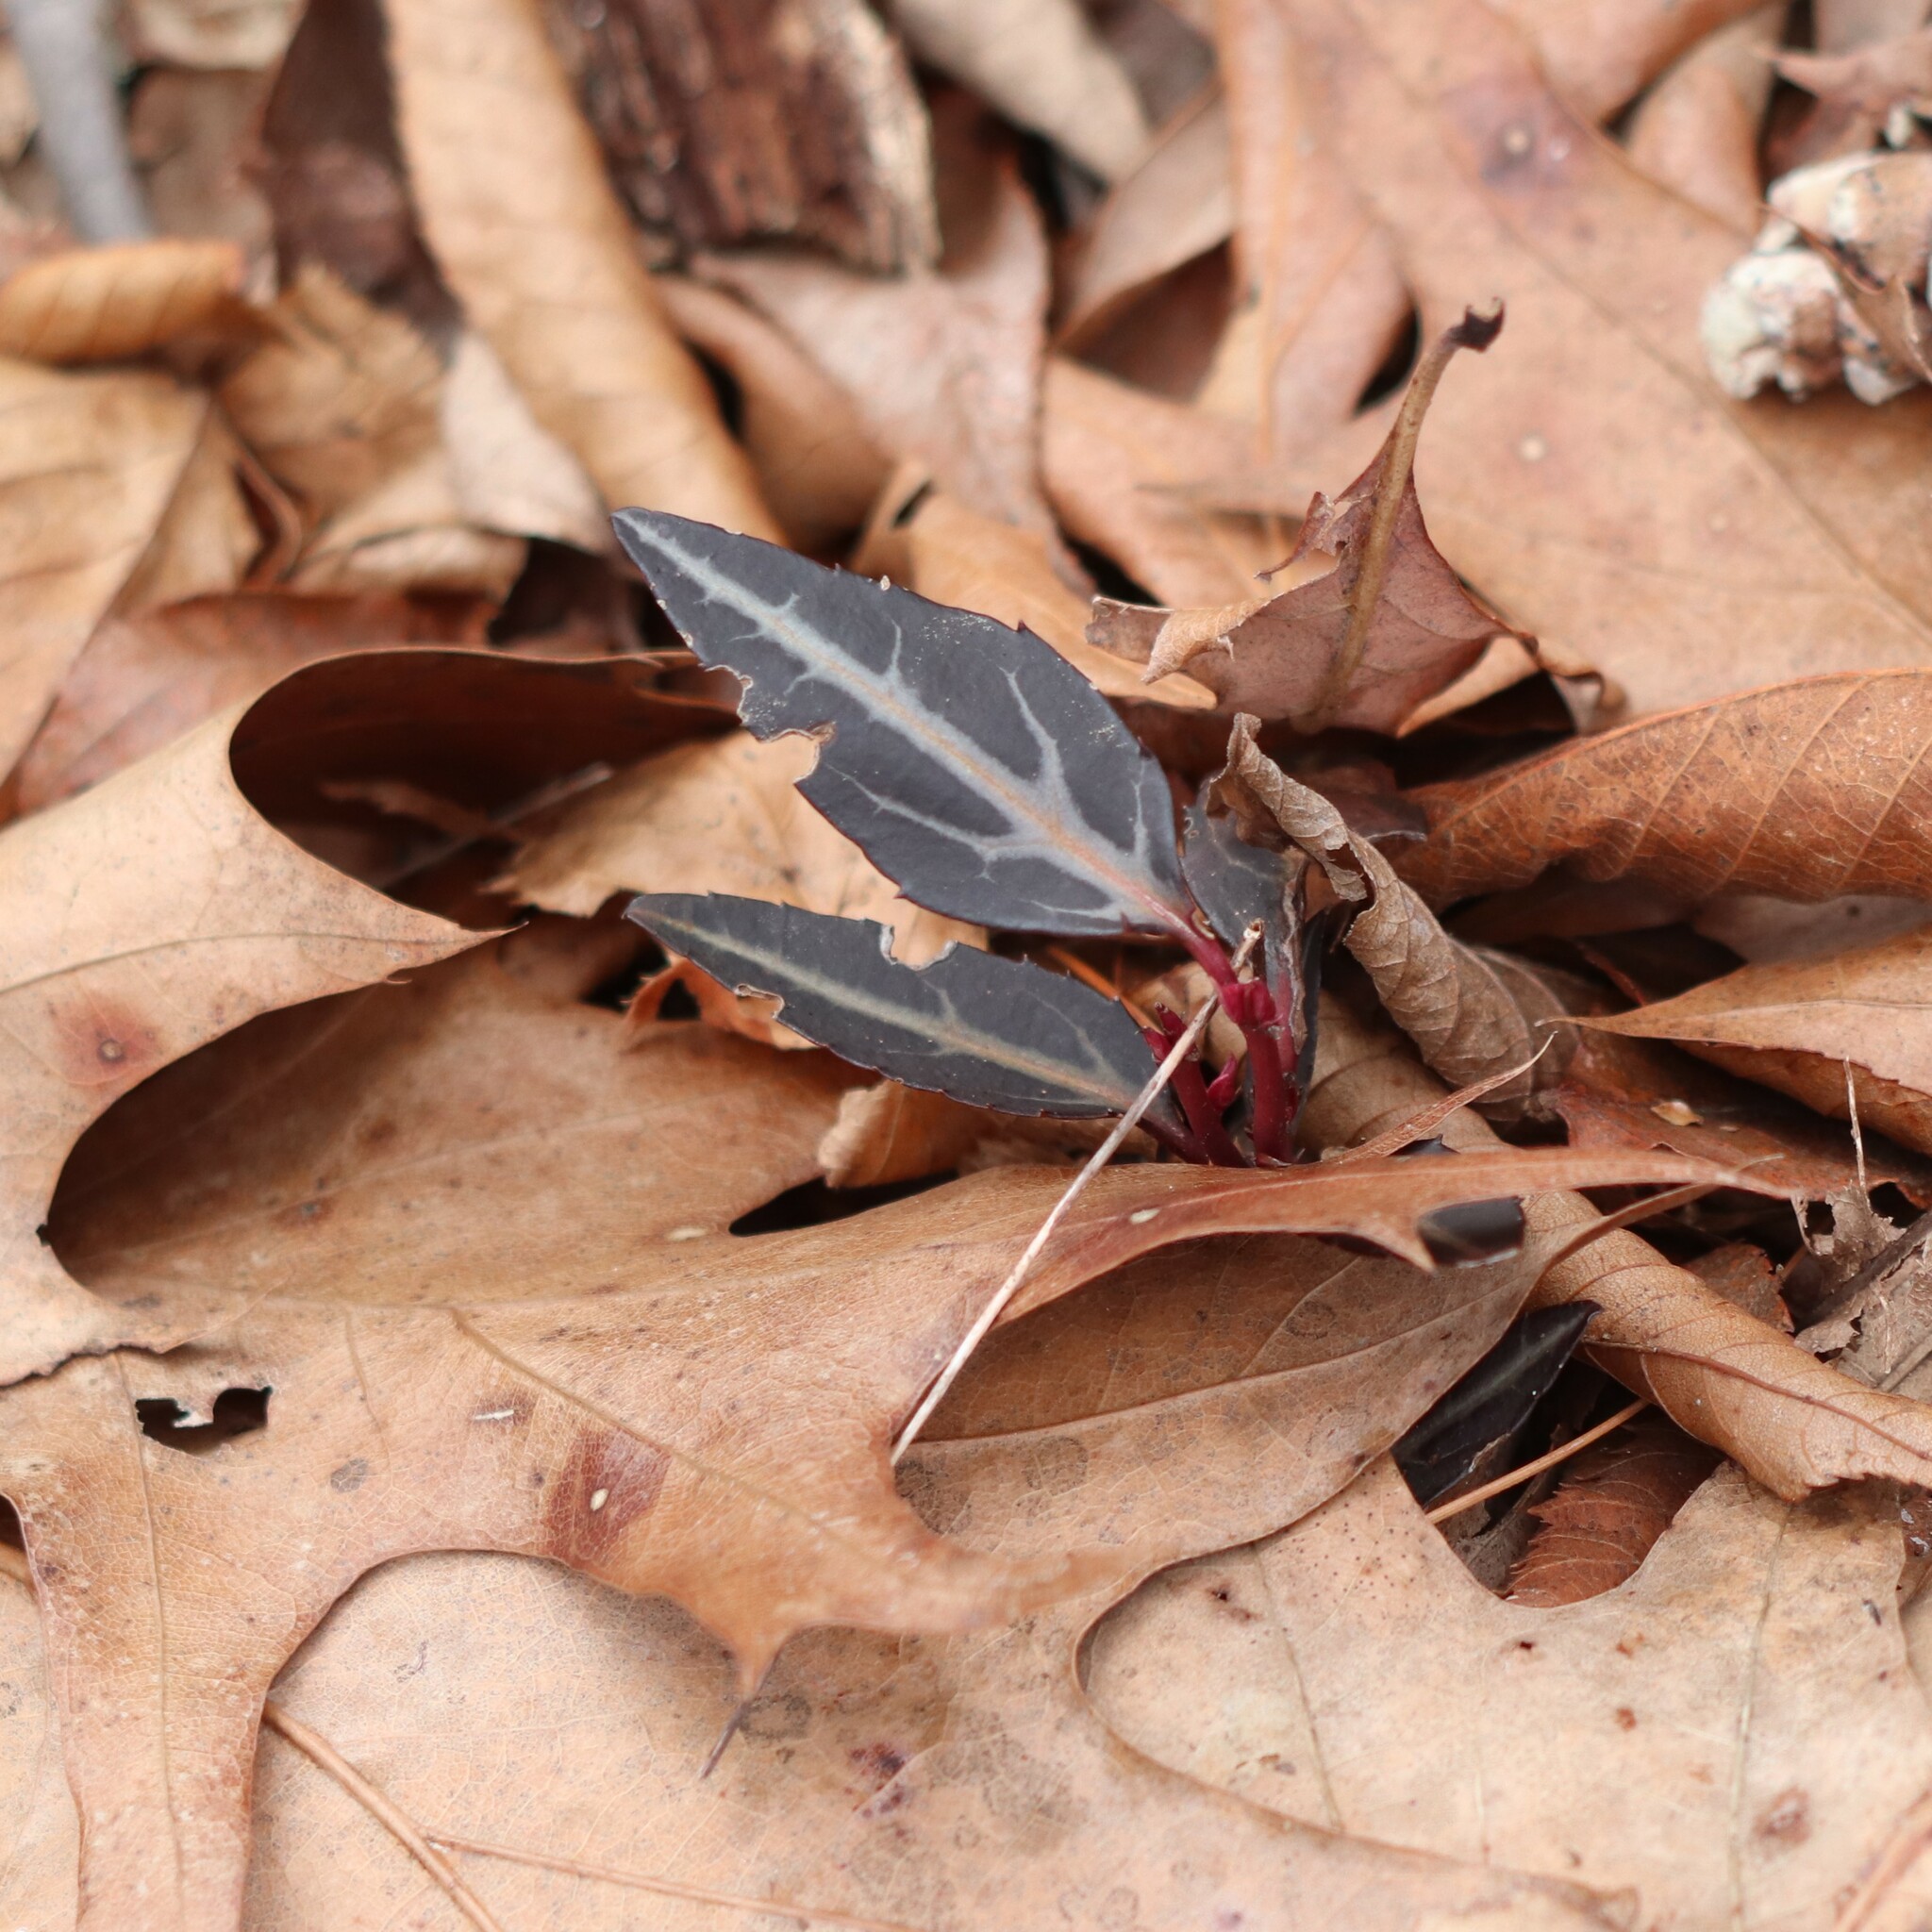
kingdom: Plantae
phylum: Tracheophyta
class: Magnoliopsida
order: Ericales
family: Ericaceae
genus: Chimaphila
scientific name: Chimaphila maculata
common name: Spotted pipsissewa
